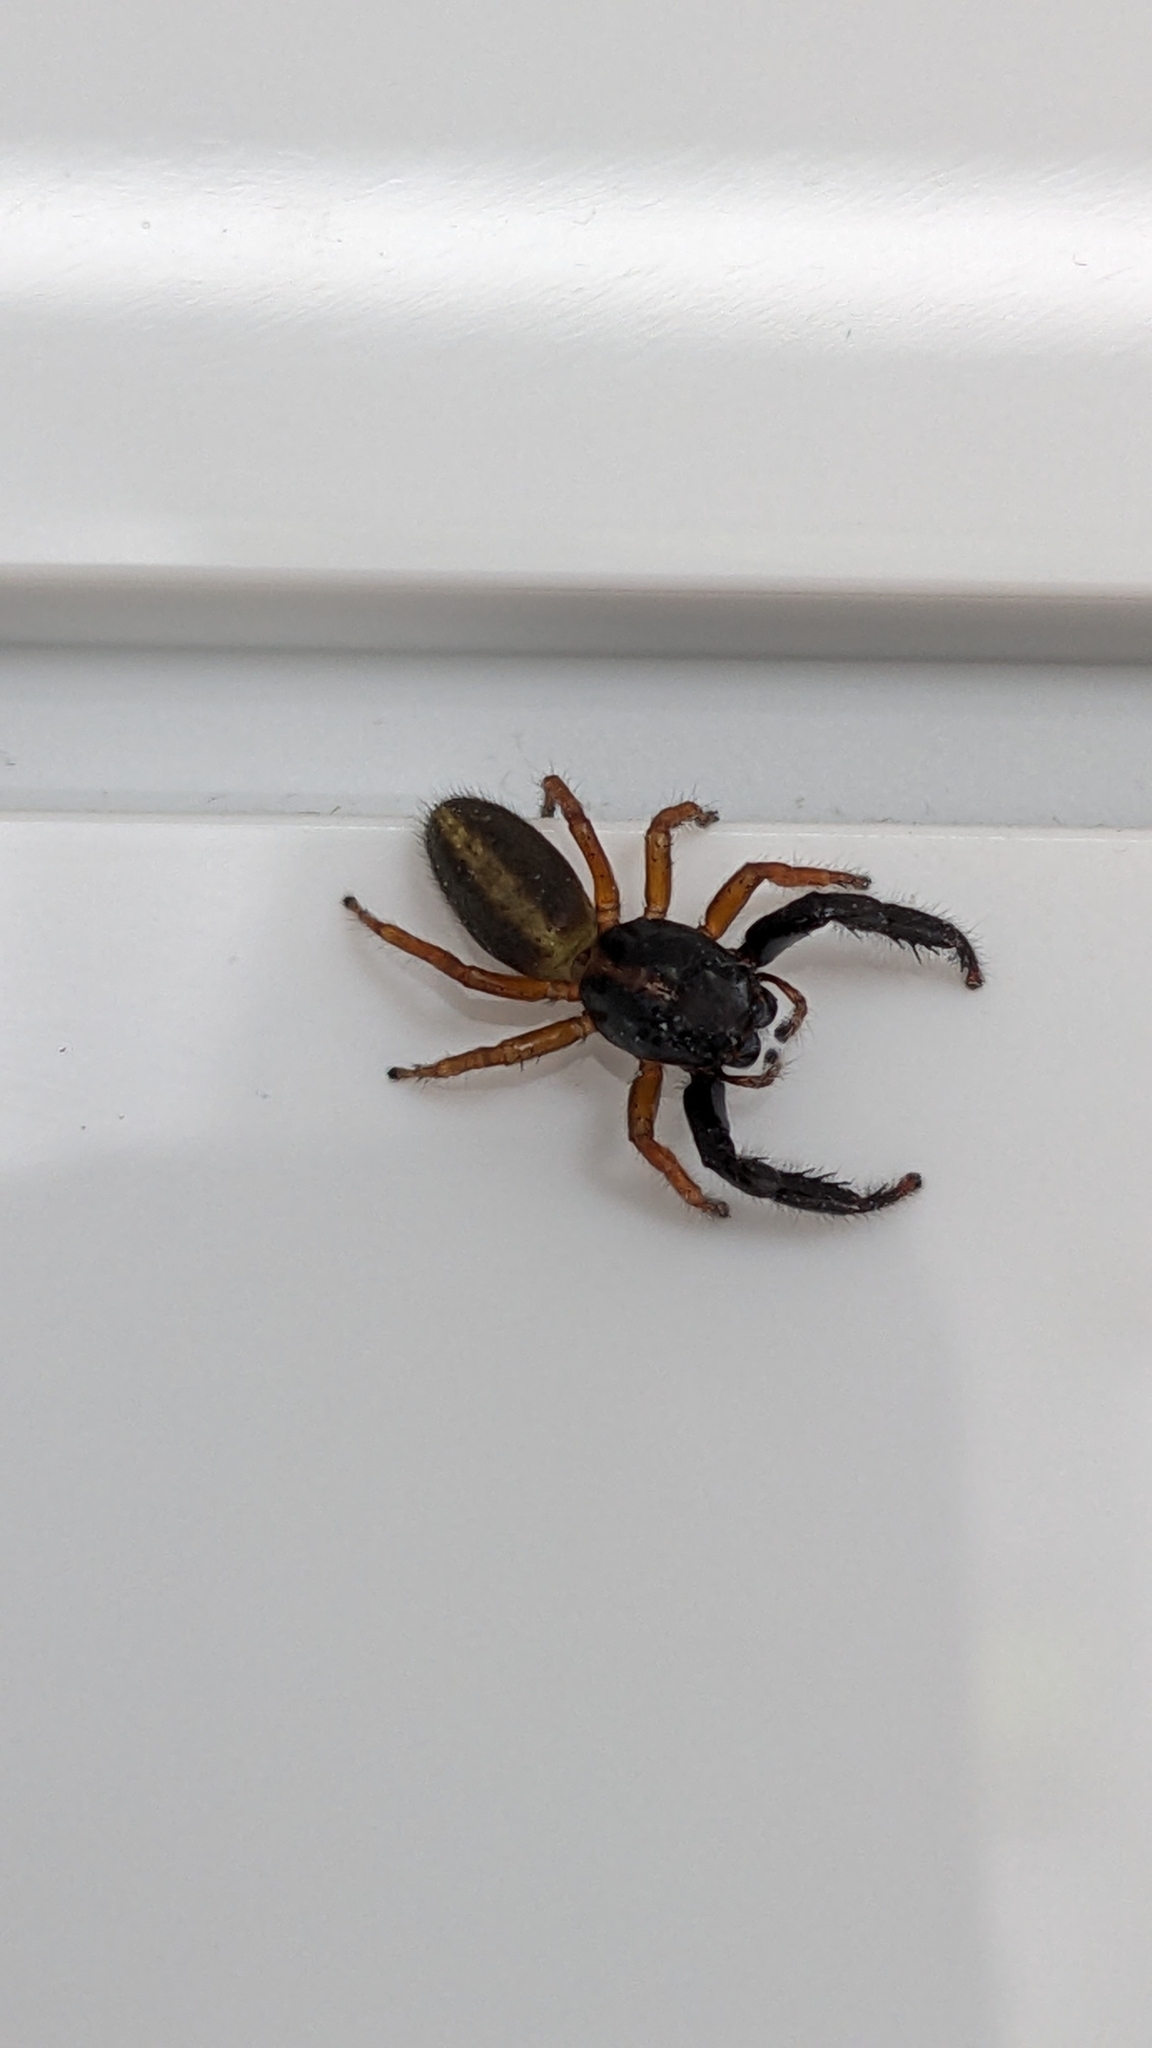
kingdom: Animalia
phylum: Arthropoda
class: Arachnida
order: Araneae
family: Salticidae
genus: Trite
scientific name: Trite planiceps
